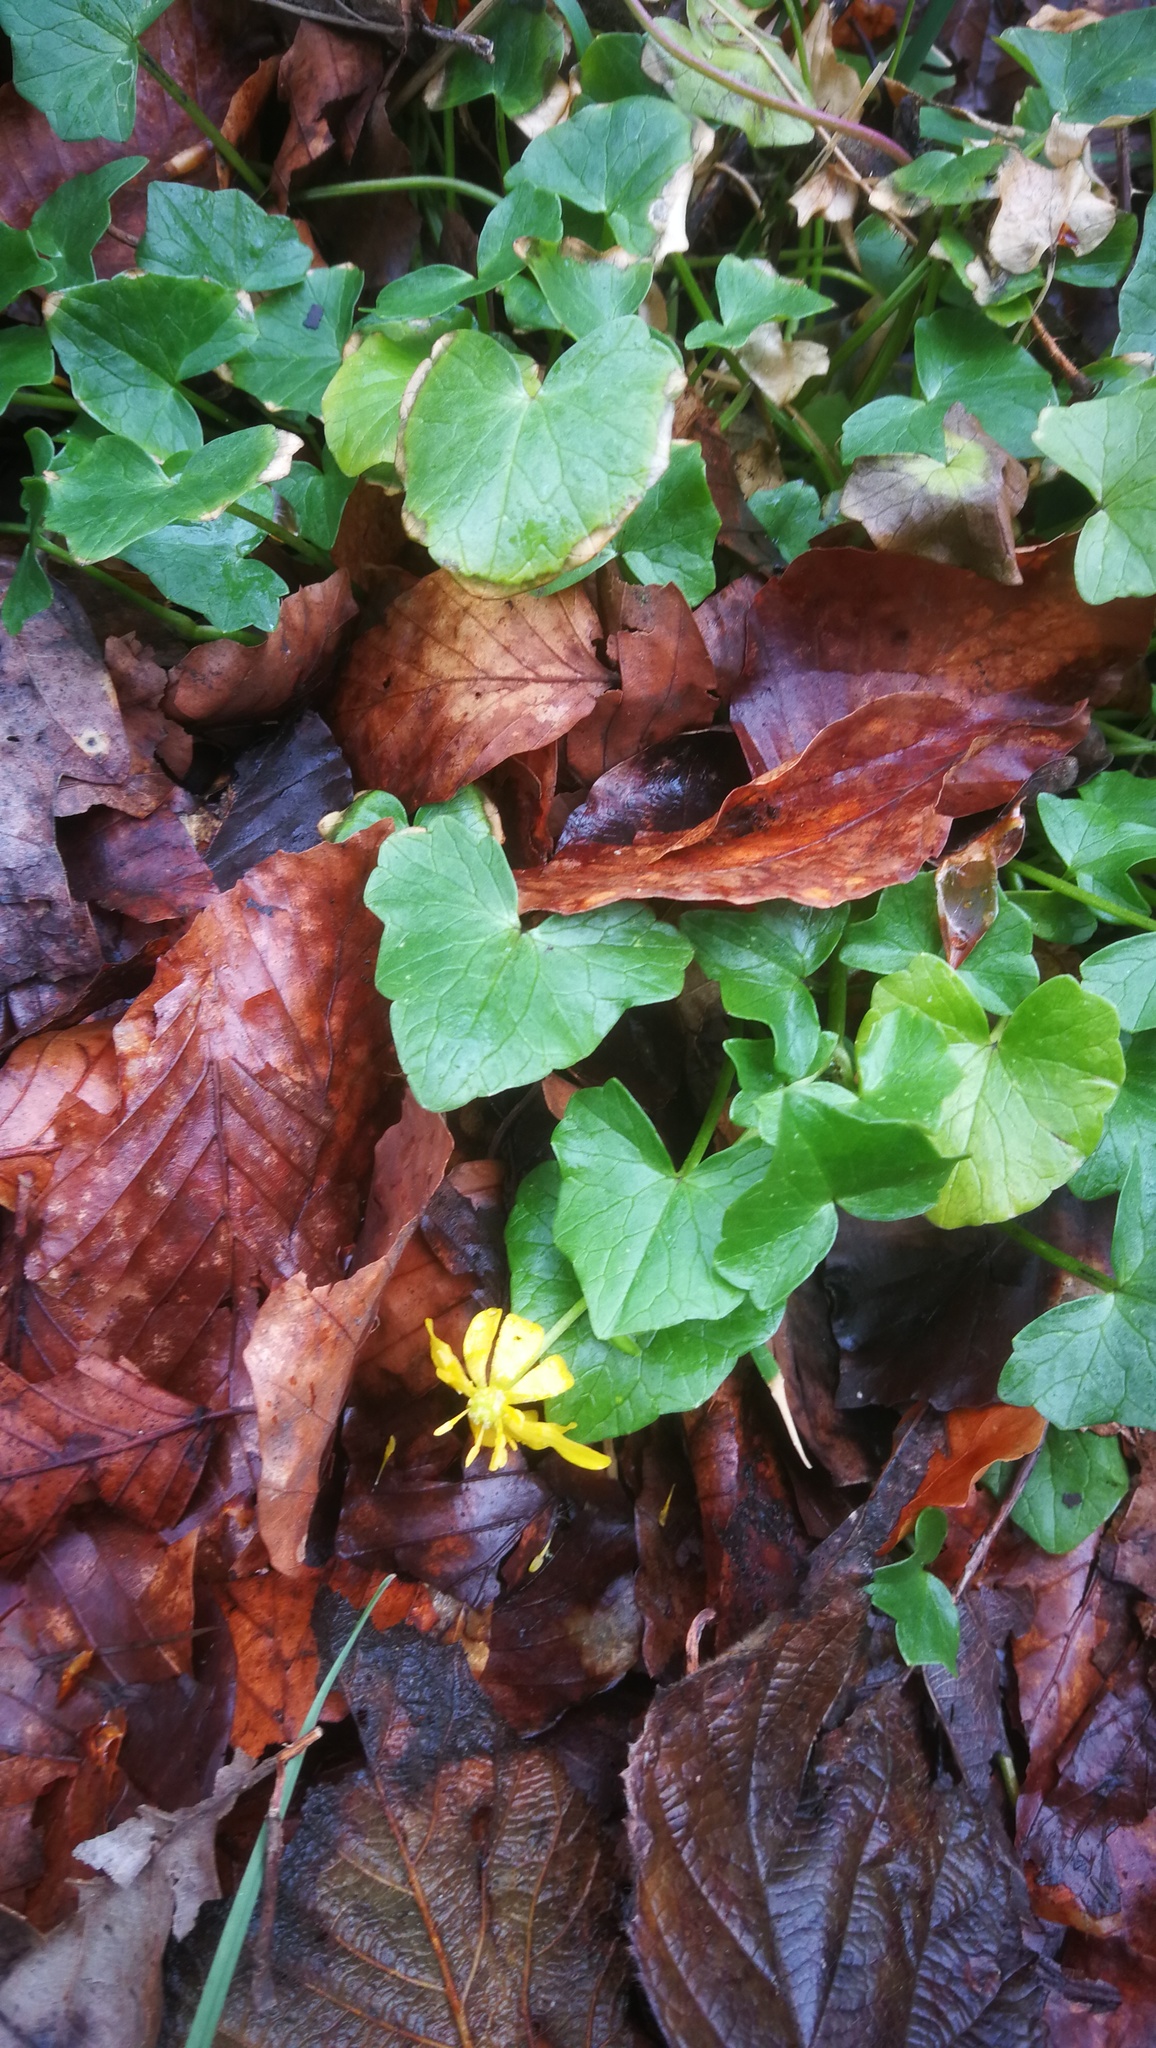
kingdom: Plantae
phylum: Tracheophyta
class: Magnoliopsida
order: Ranunculales
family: Ranunculaceae
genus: Ficaria
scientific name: Ficaria verna
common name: Lesser celandine
